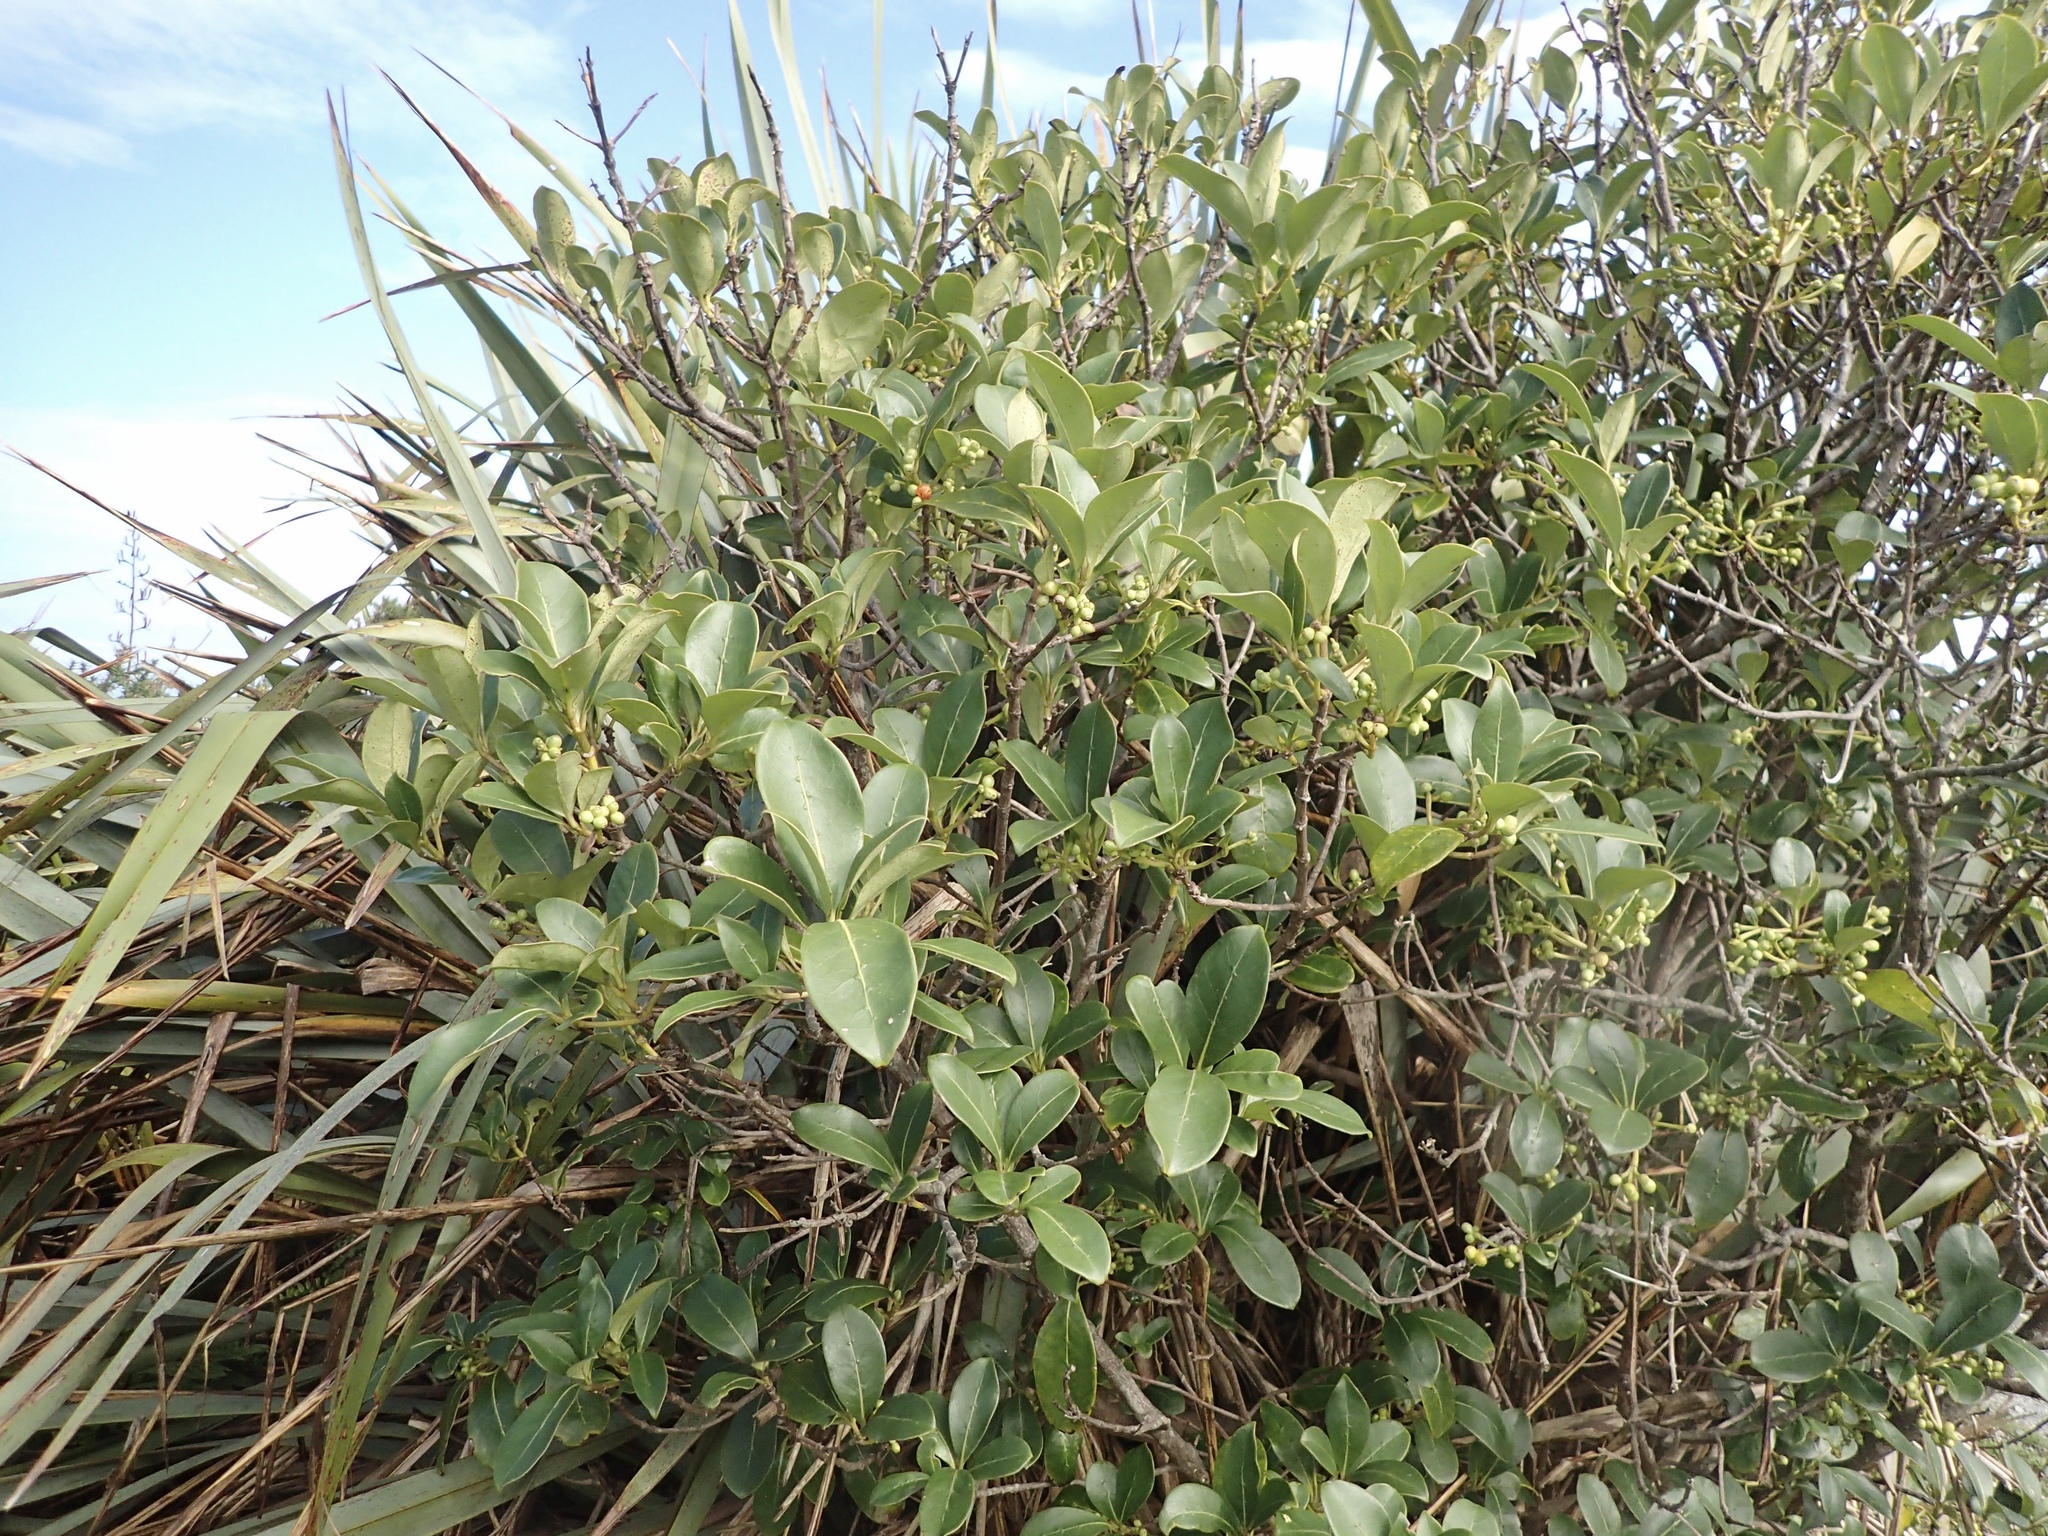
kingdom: Plantae
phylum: Tracheophyta
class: Magnoliopsida
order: Gentianales
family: Rubiaceae
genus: Coprosma
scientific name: Coprosma lucida
